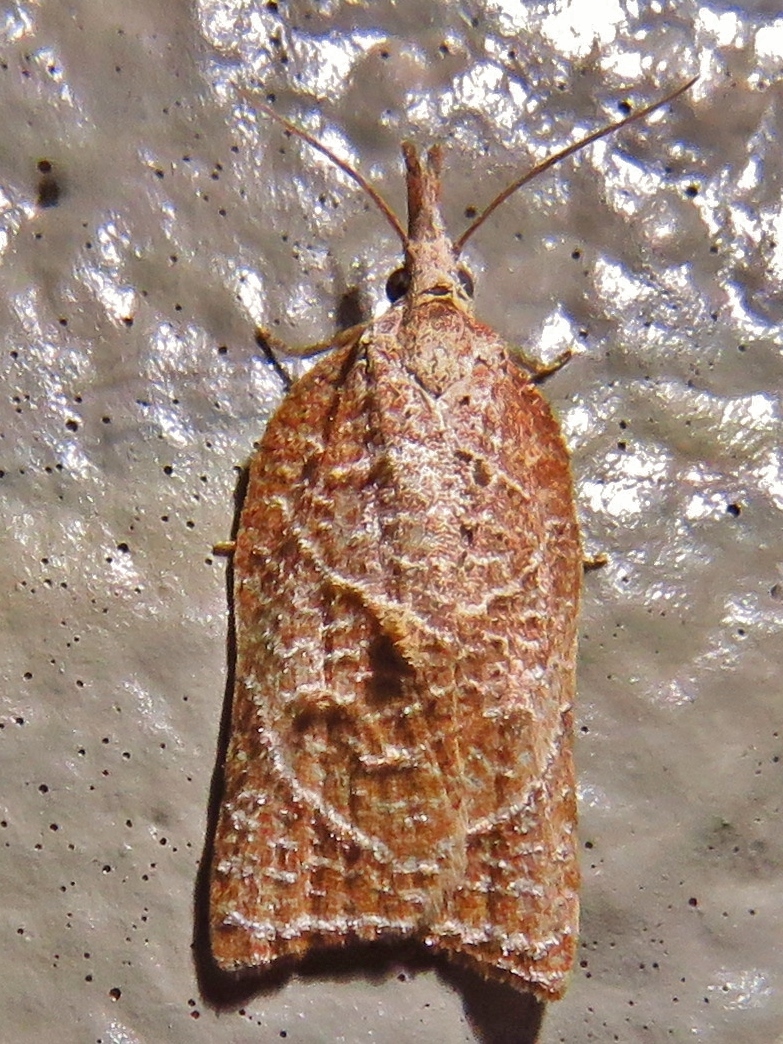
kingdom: Animalia
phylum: Arthropoda
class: Insecta
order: Lepidoptera
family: Tortricidae
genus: Platynota
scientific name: Platynota rostrana
